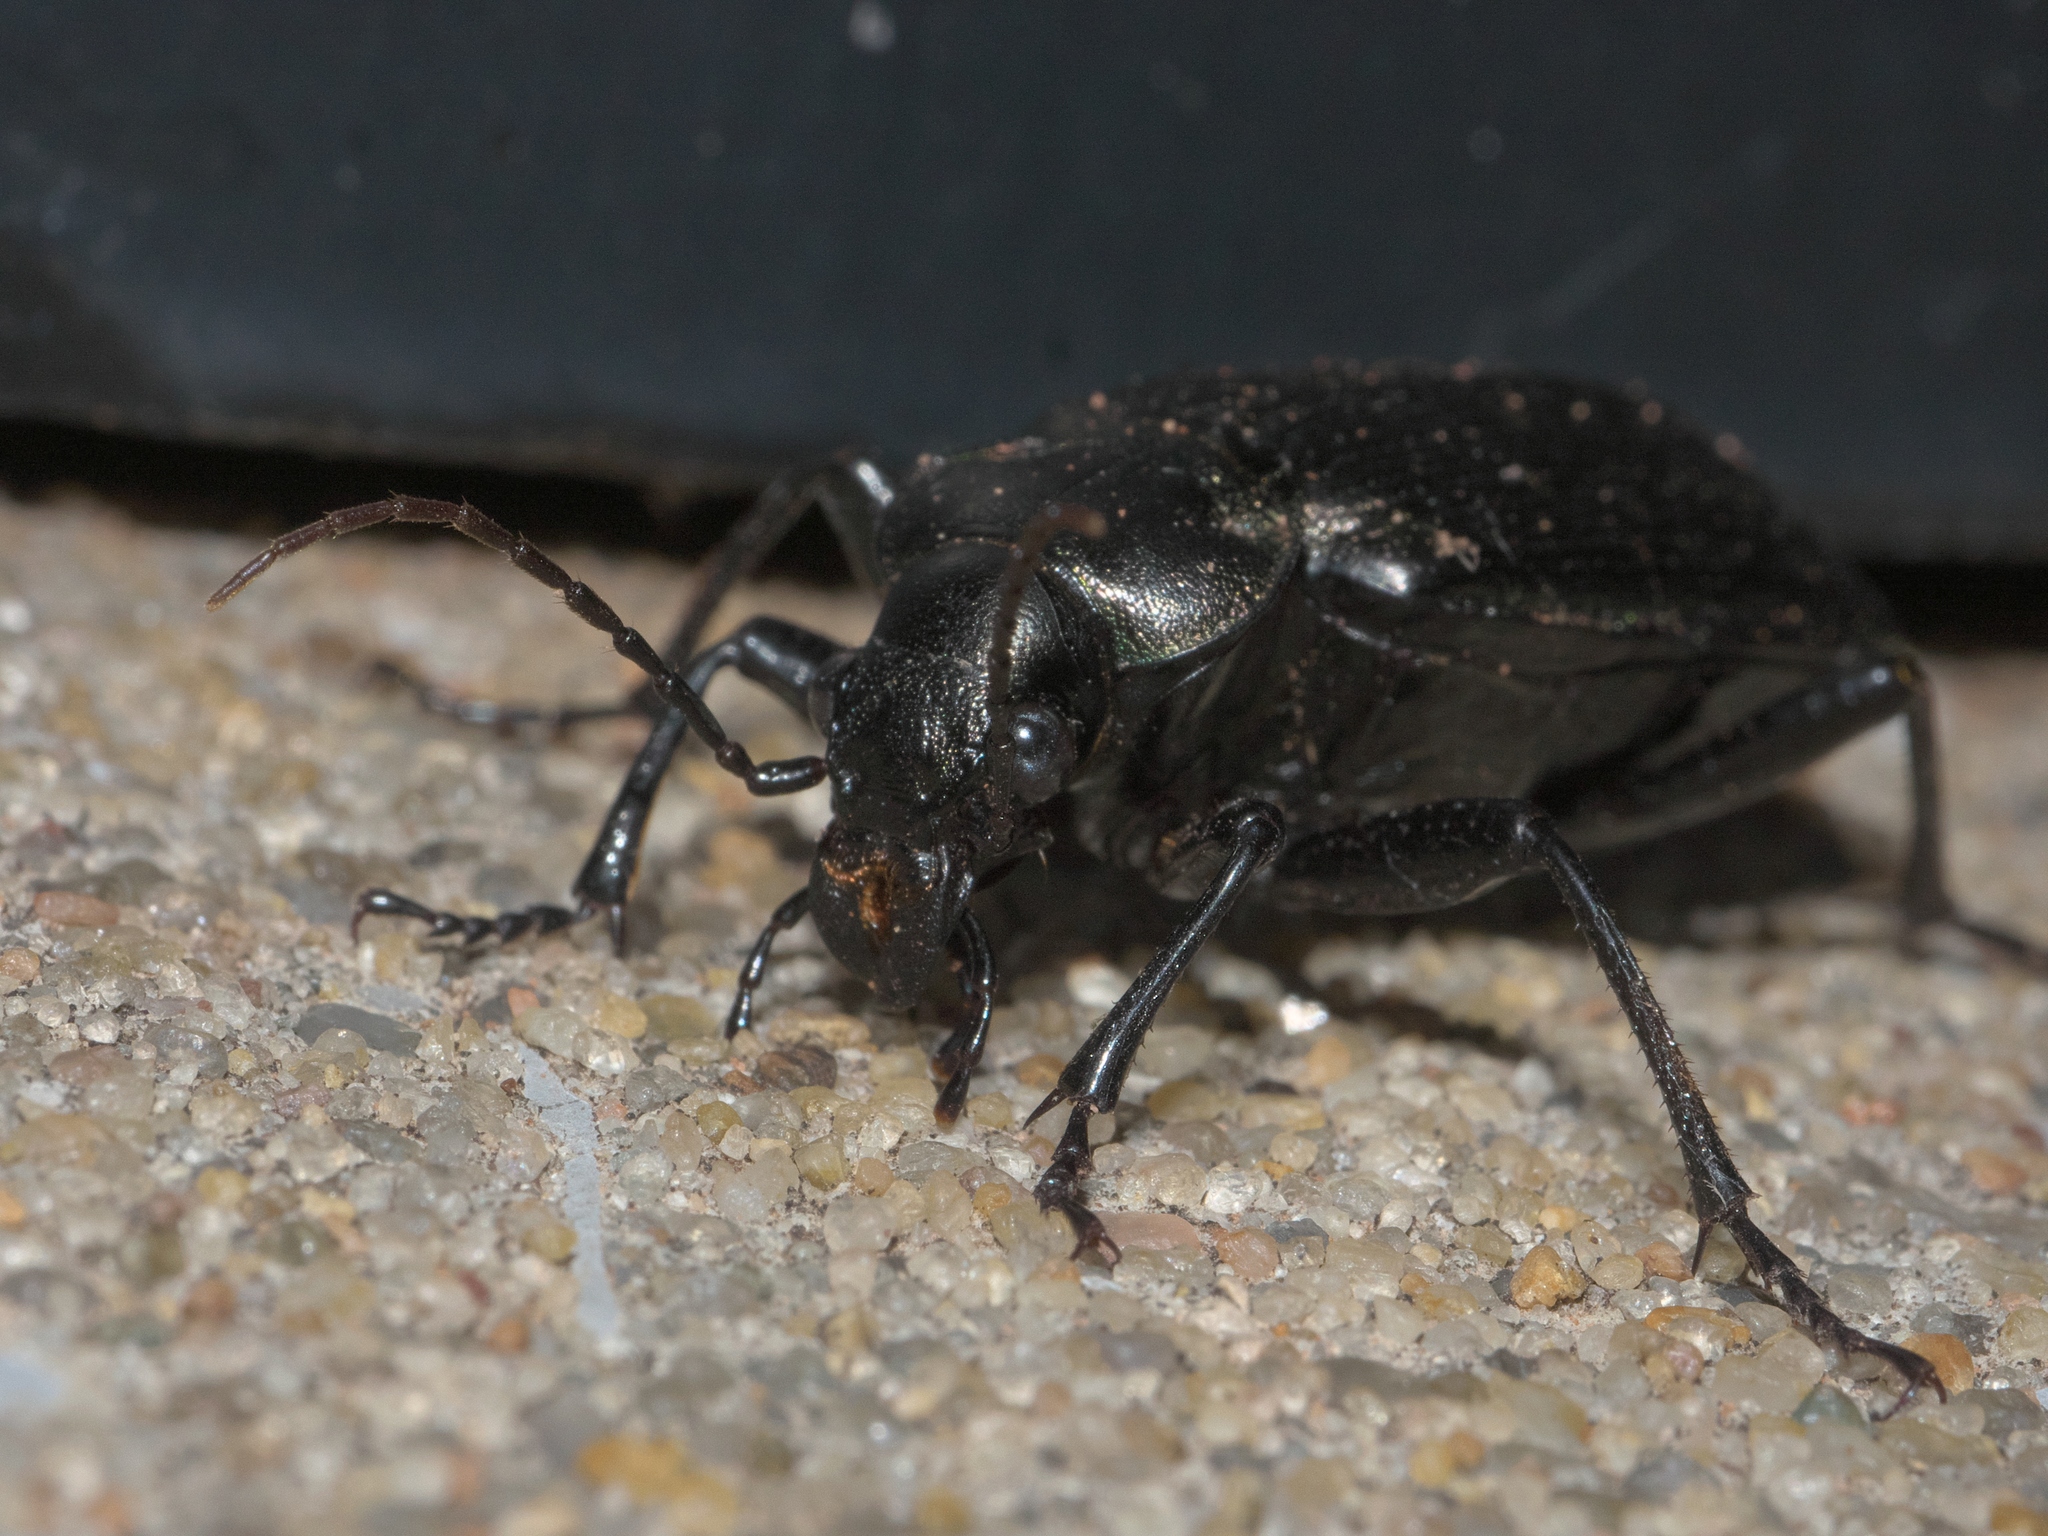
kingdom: Animalia
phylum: Arthropoda
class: Insecta
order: Coleoptera
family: Carabidae
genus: Calosoma
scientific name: Calosoma sayi
